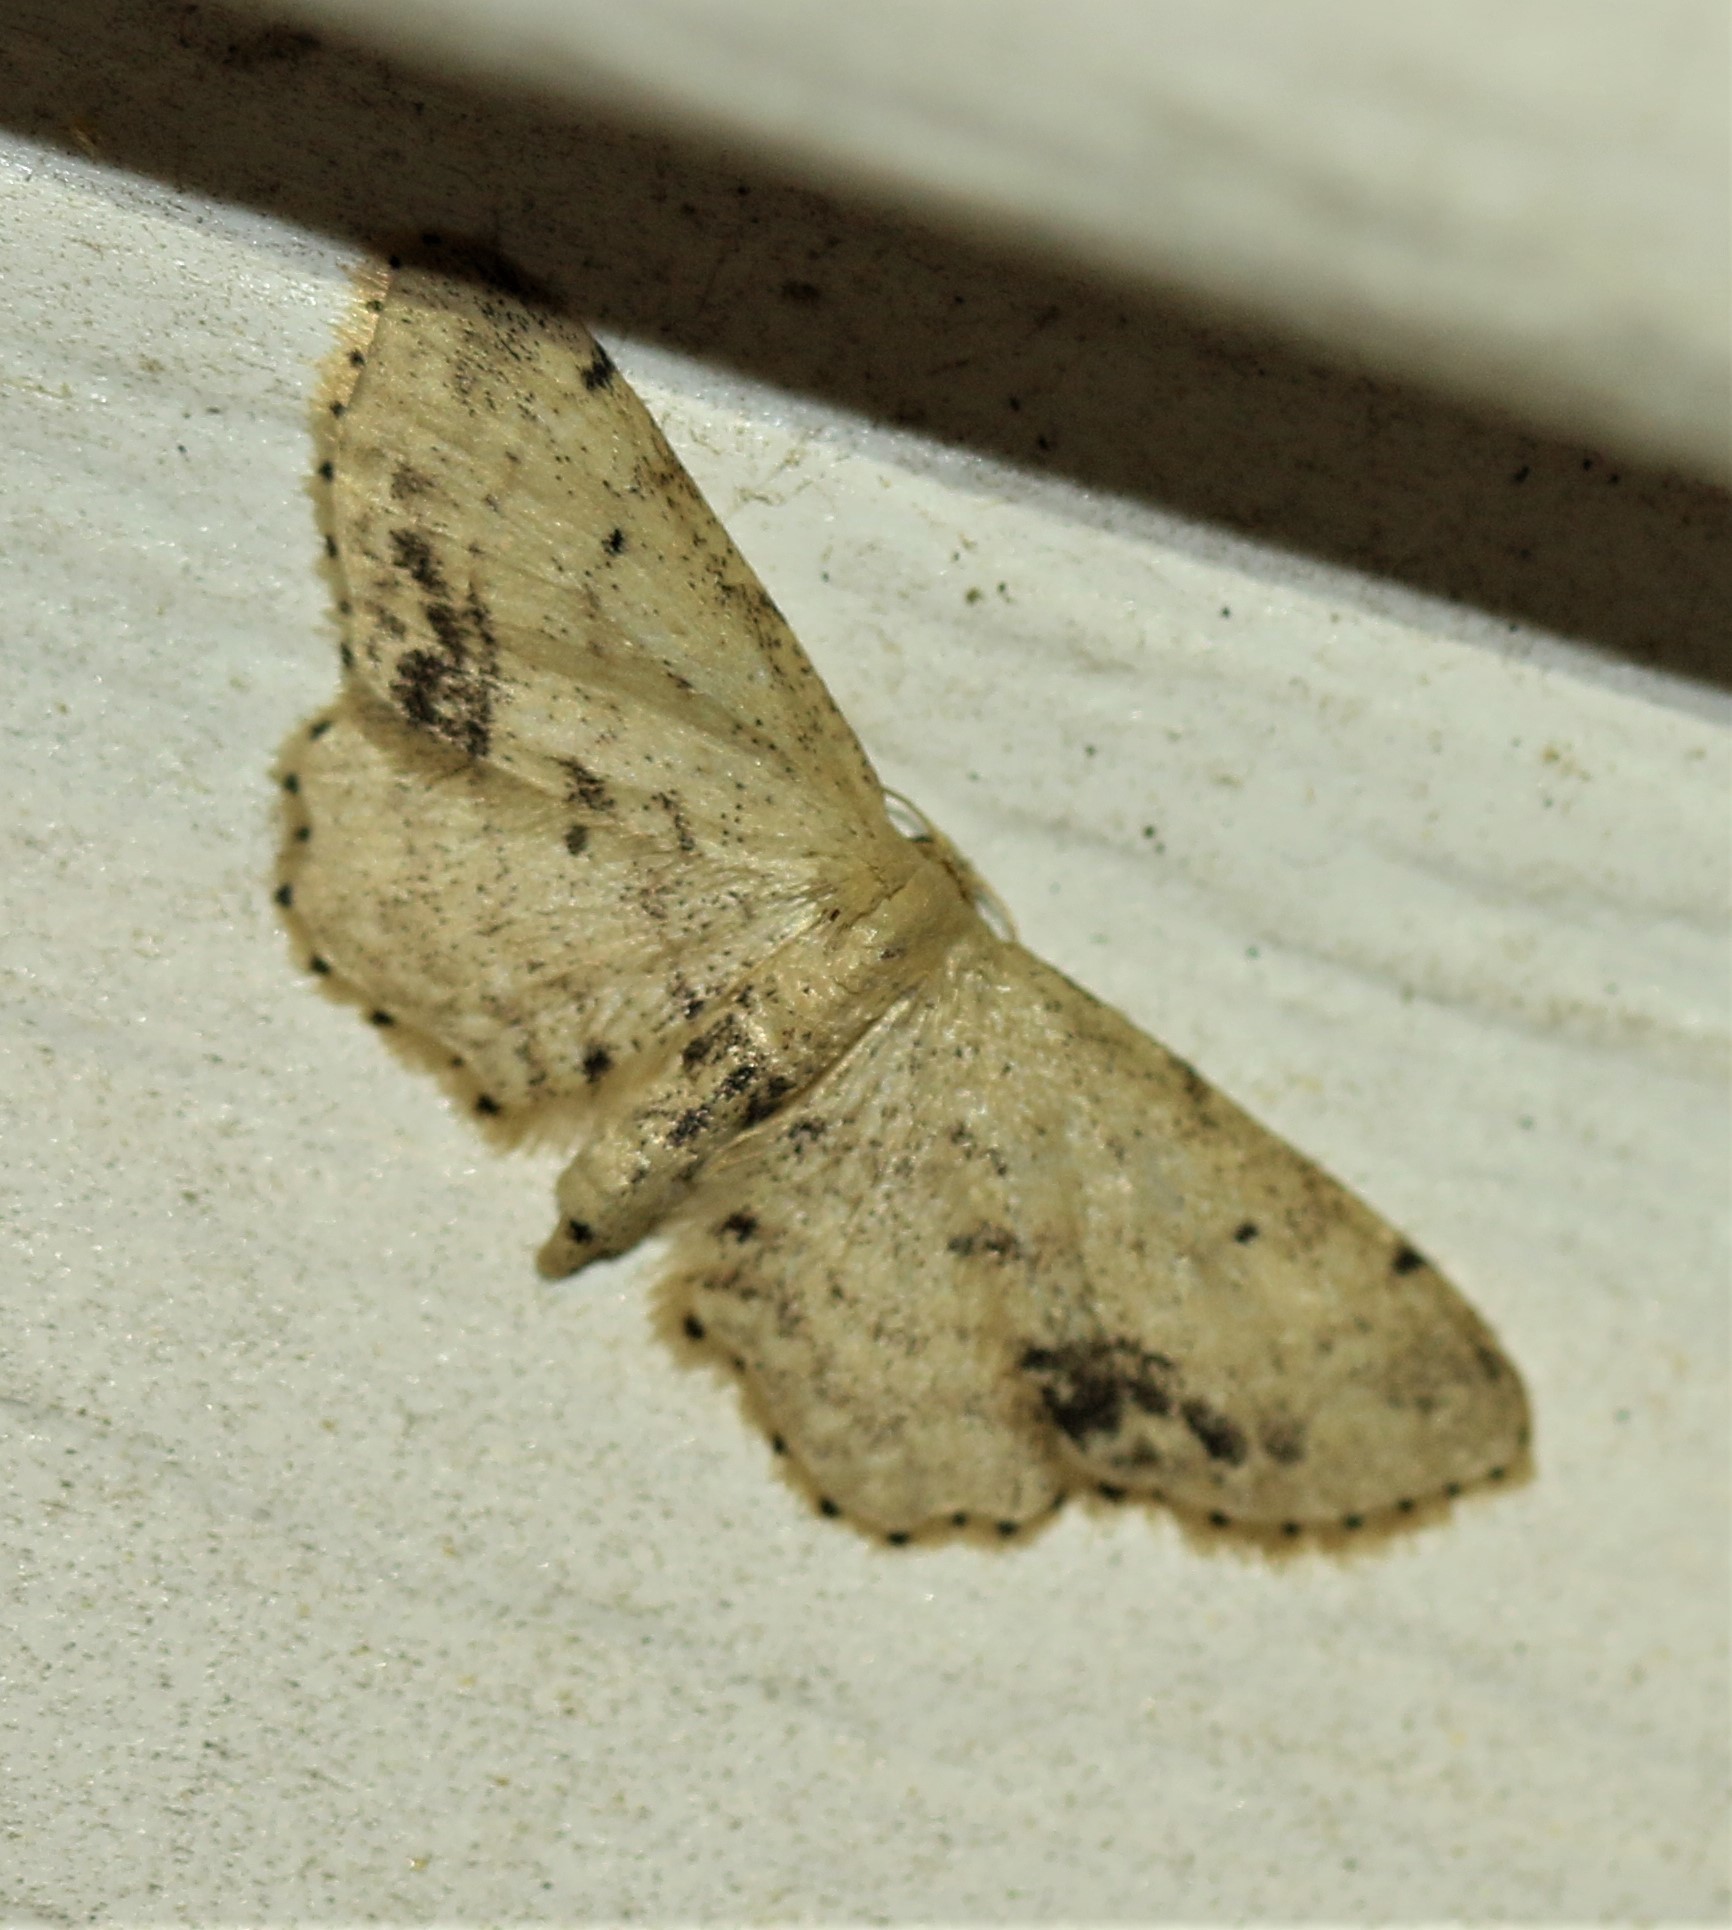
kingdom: Animalia
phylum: Arthropoda
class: Insecta
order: Lepidoptera
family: Geometridae
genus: Idaea
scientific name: Idaea dimidiata
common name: Single-dotted wave
